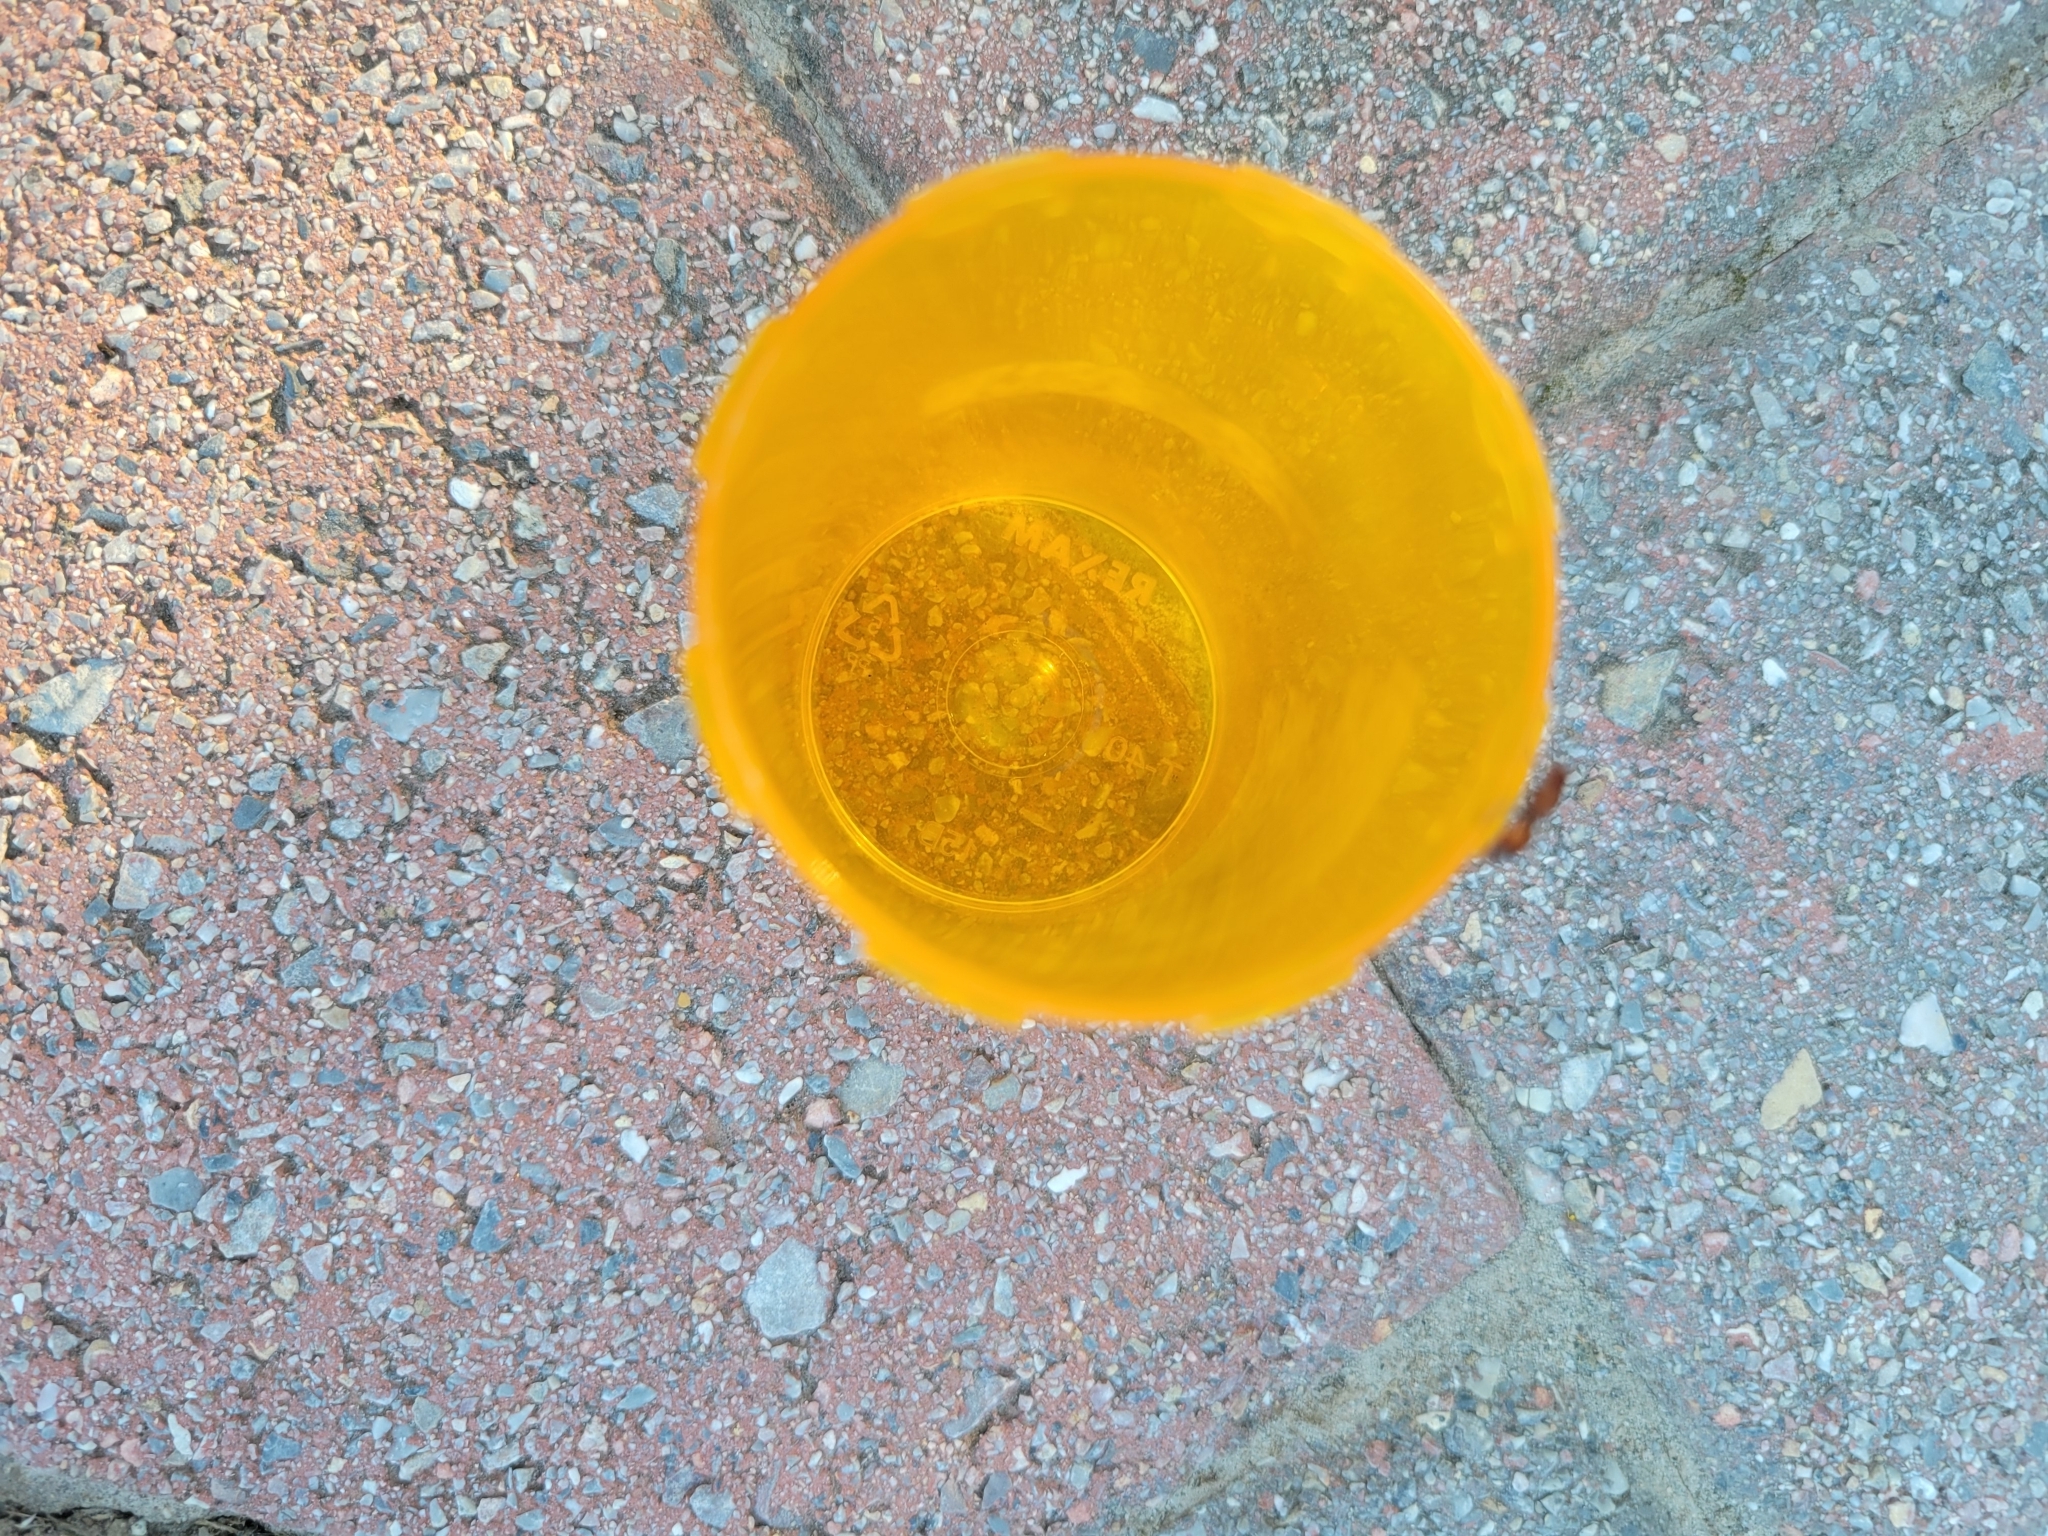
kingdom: Animalia
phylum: Arthropoda
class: Insecta
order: Hymenoptera
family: Mutillidae
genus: Sphaeropthalma
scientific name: Sphaeropthalma
